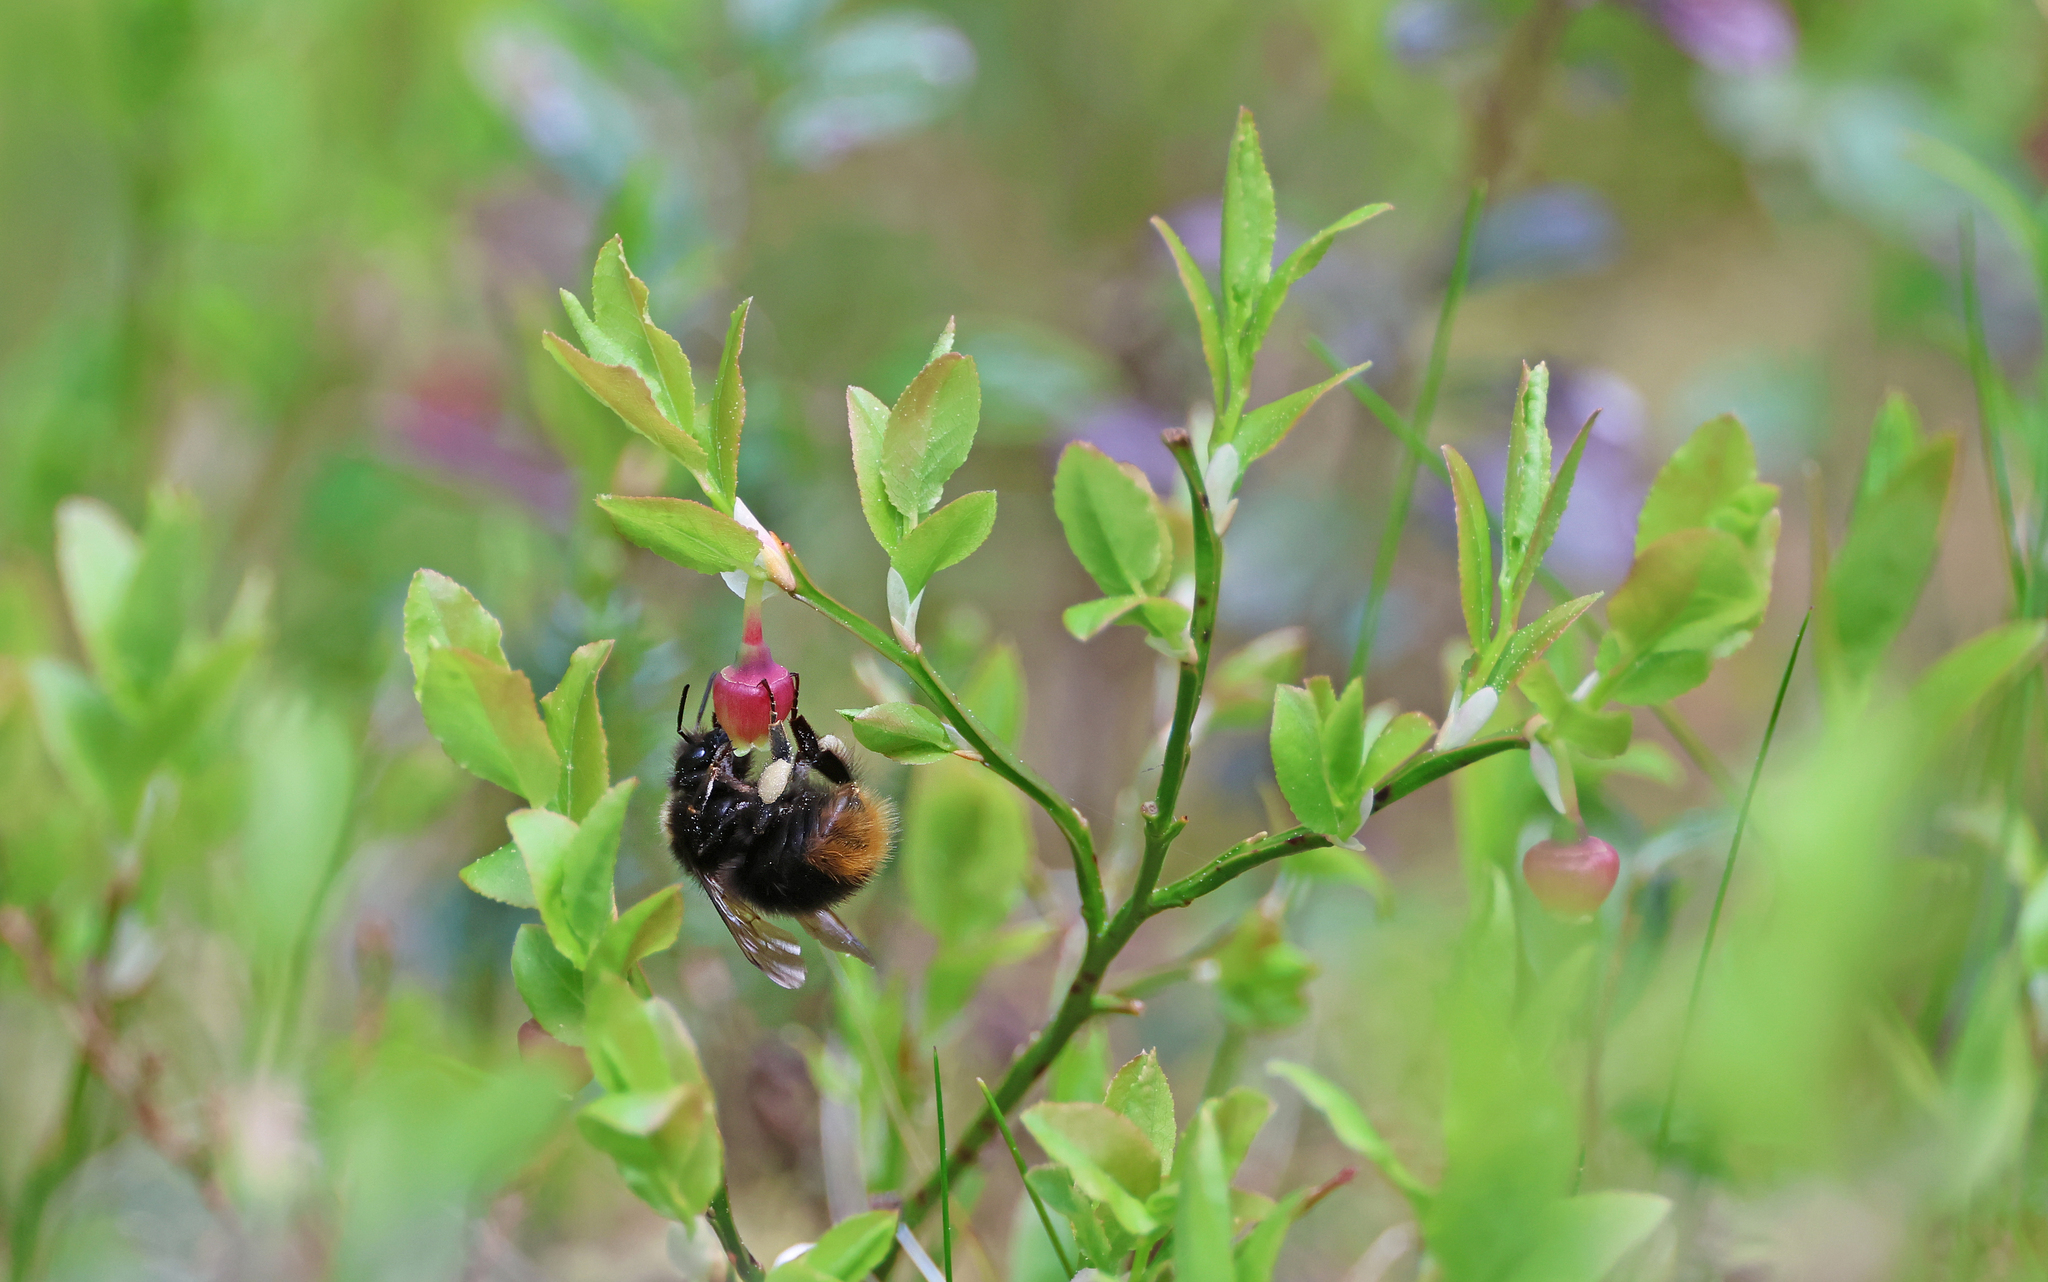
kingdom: Animalia
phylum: Arthropoda
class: Insecta
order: Hymenoptera
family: Apidae
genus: Bombus
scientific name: Bombus
